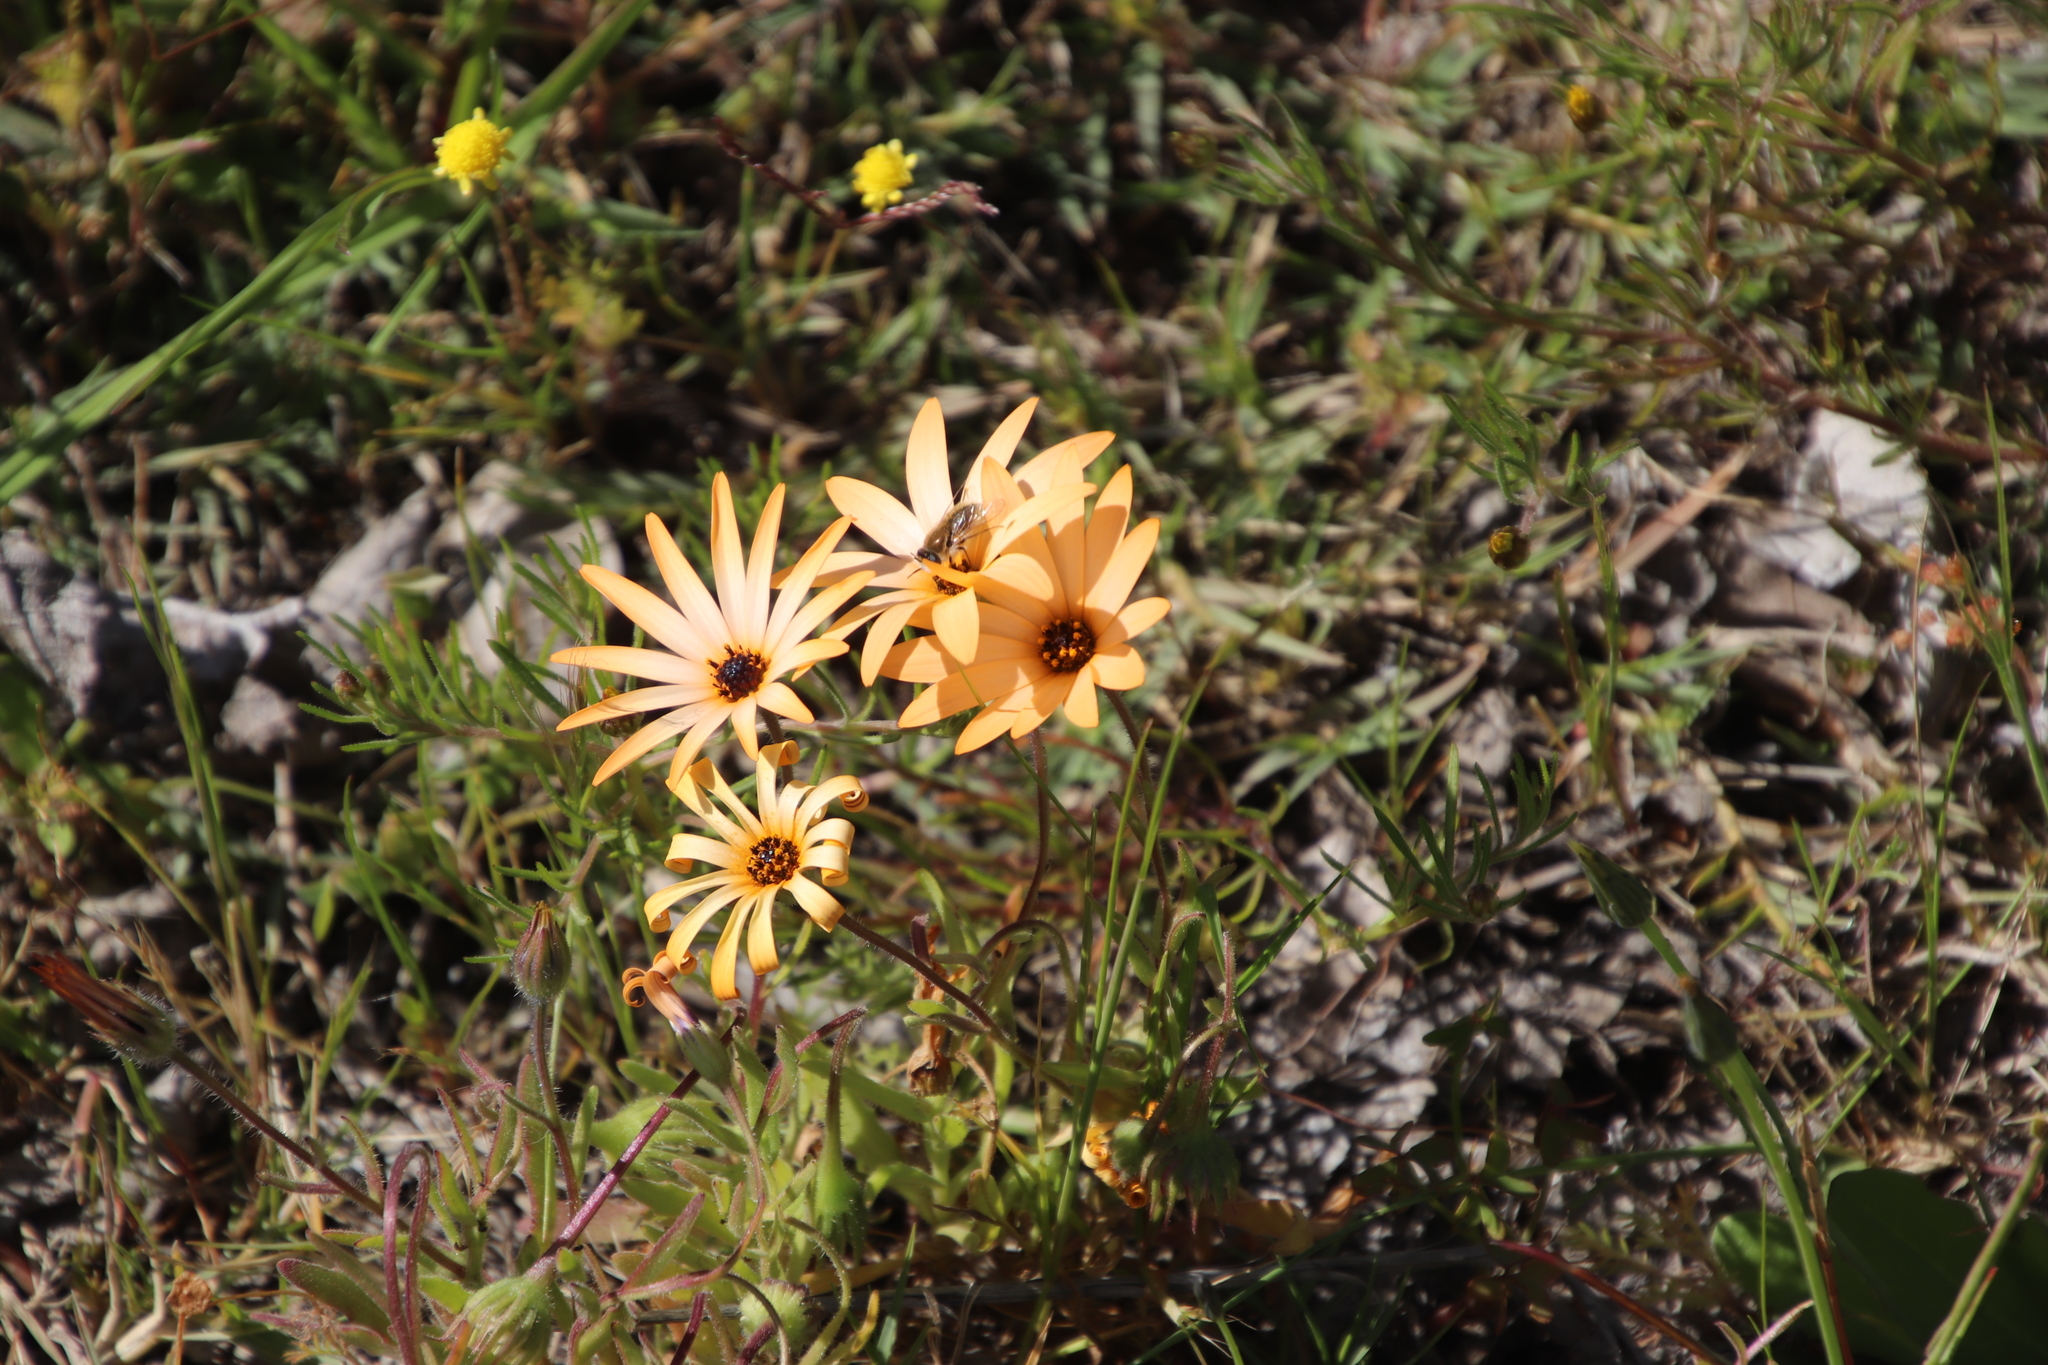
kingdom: Plantae
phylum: Tracheophyta
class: Magnoliopsida
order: Asterales
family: Asteraceae
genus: Dimorphotheca
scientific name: Dimorphotheca sinuata
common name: Glandular cape marigold
